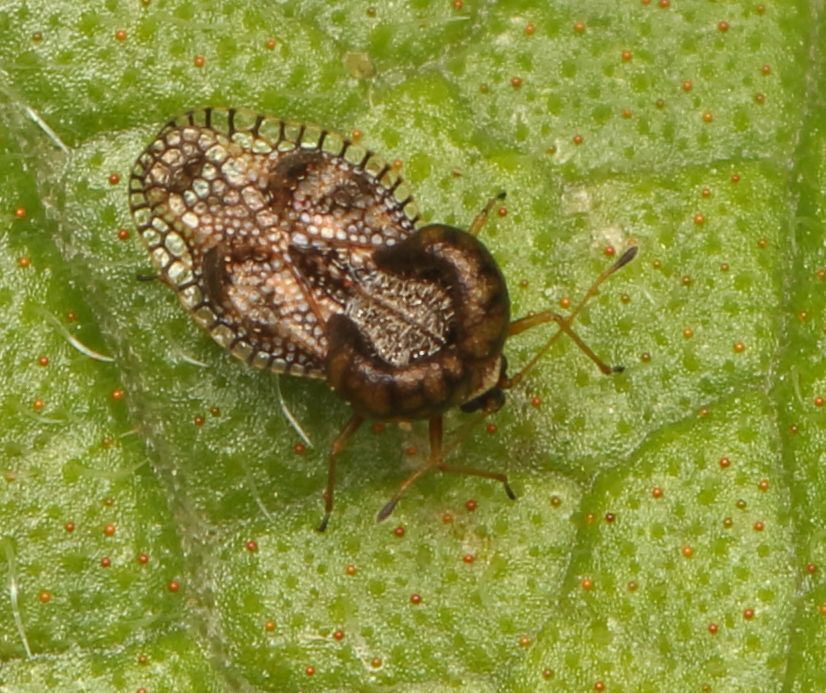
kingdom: Animalia
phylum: Arthropoda
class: Insecta
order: Hemiptera
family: Tingidae
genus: Cochlochila
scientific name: Cochlochila bullita
